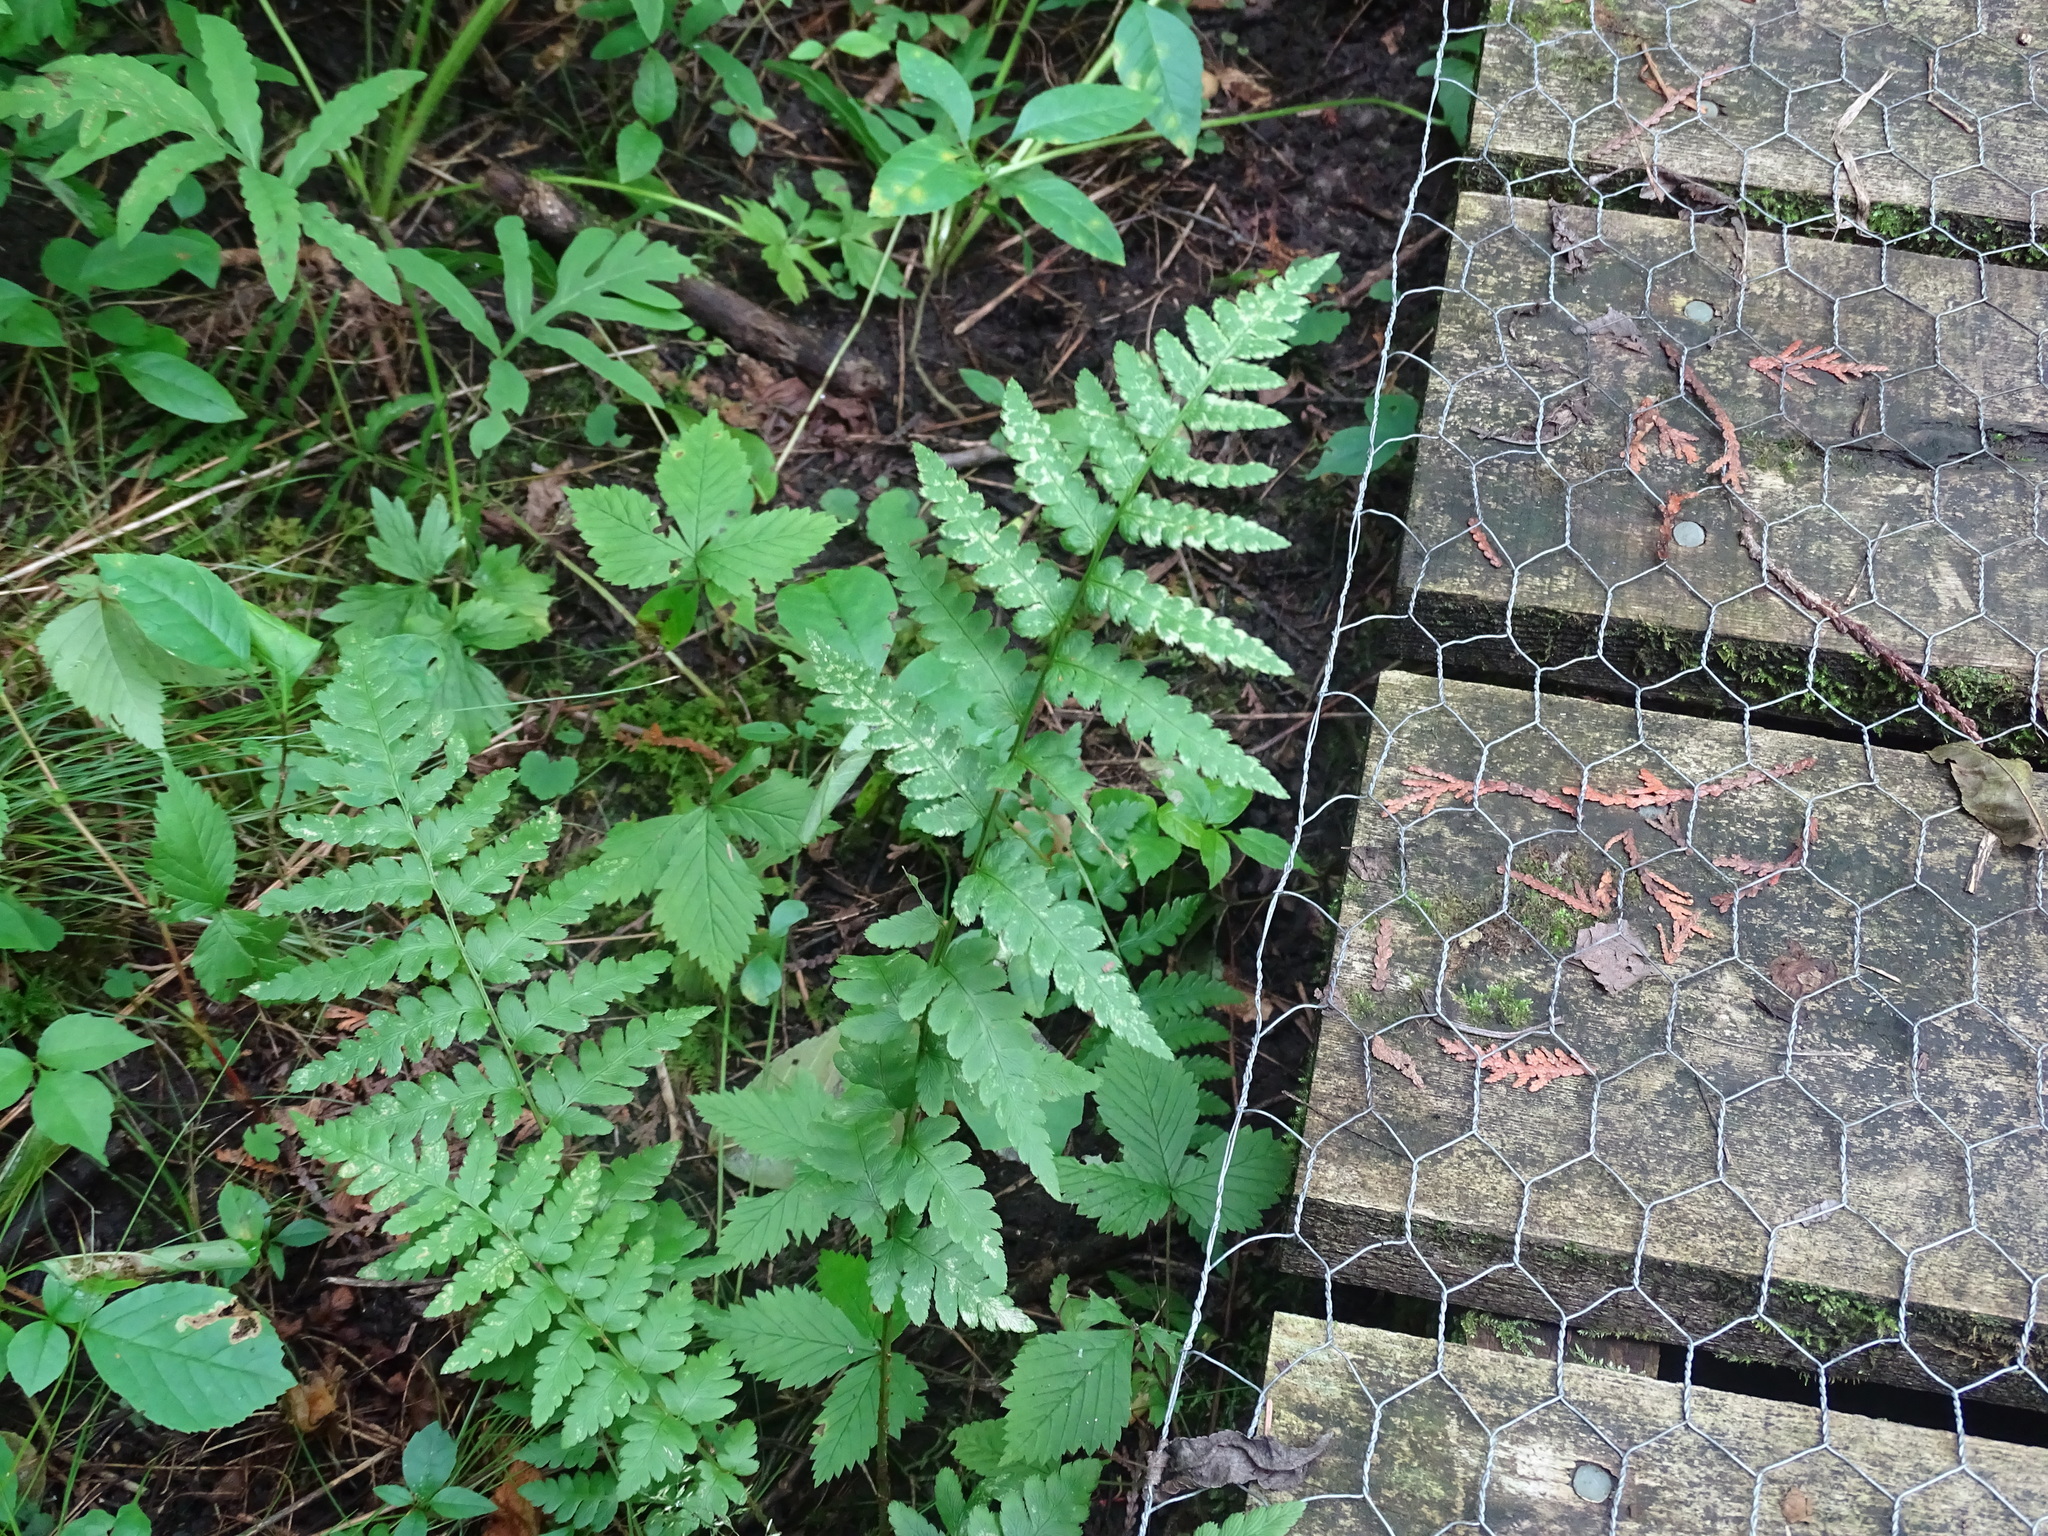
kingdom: Plantae
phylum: Tracheophyta
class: Polypodiopsida
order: Polypodiales
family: Dryopteridaceae
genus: Dryopteris
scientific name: Dryopteris cristata
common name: Crested wood fern
